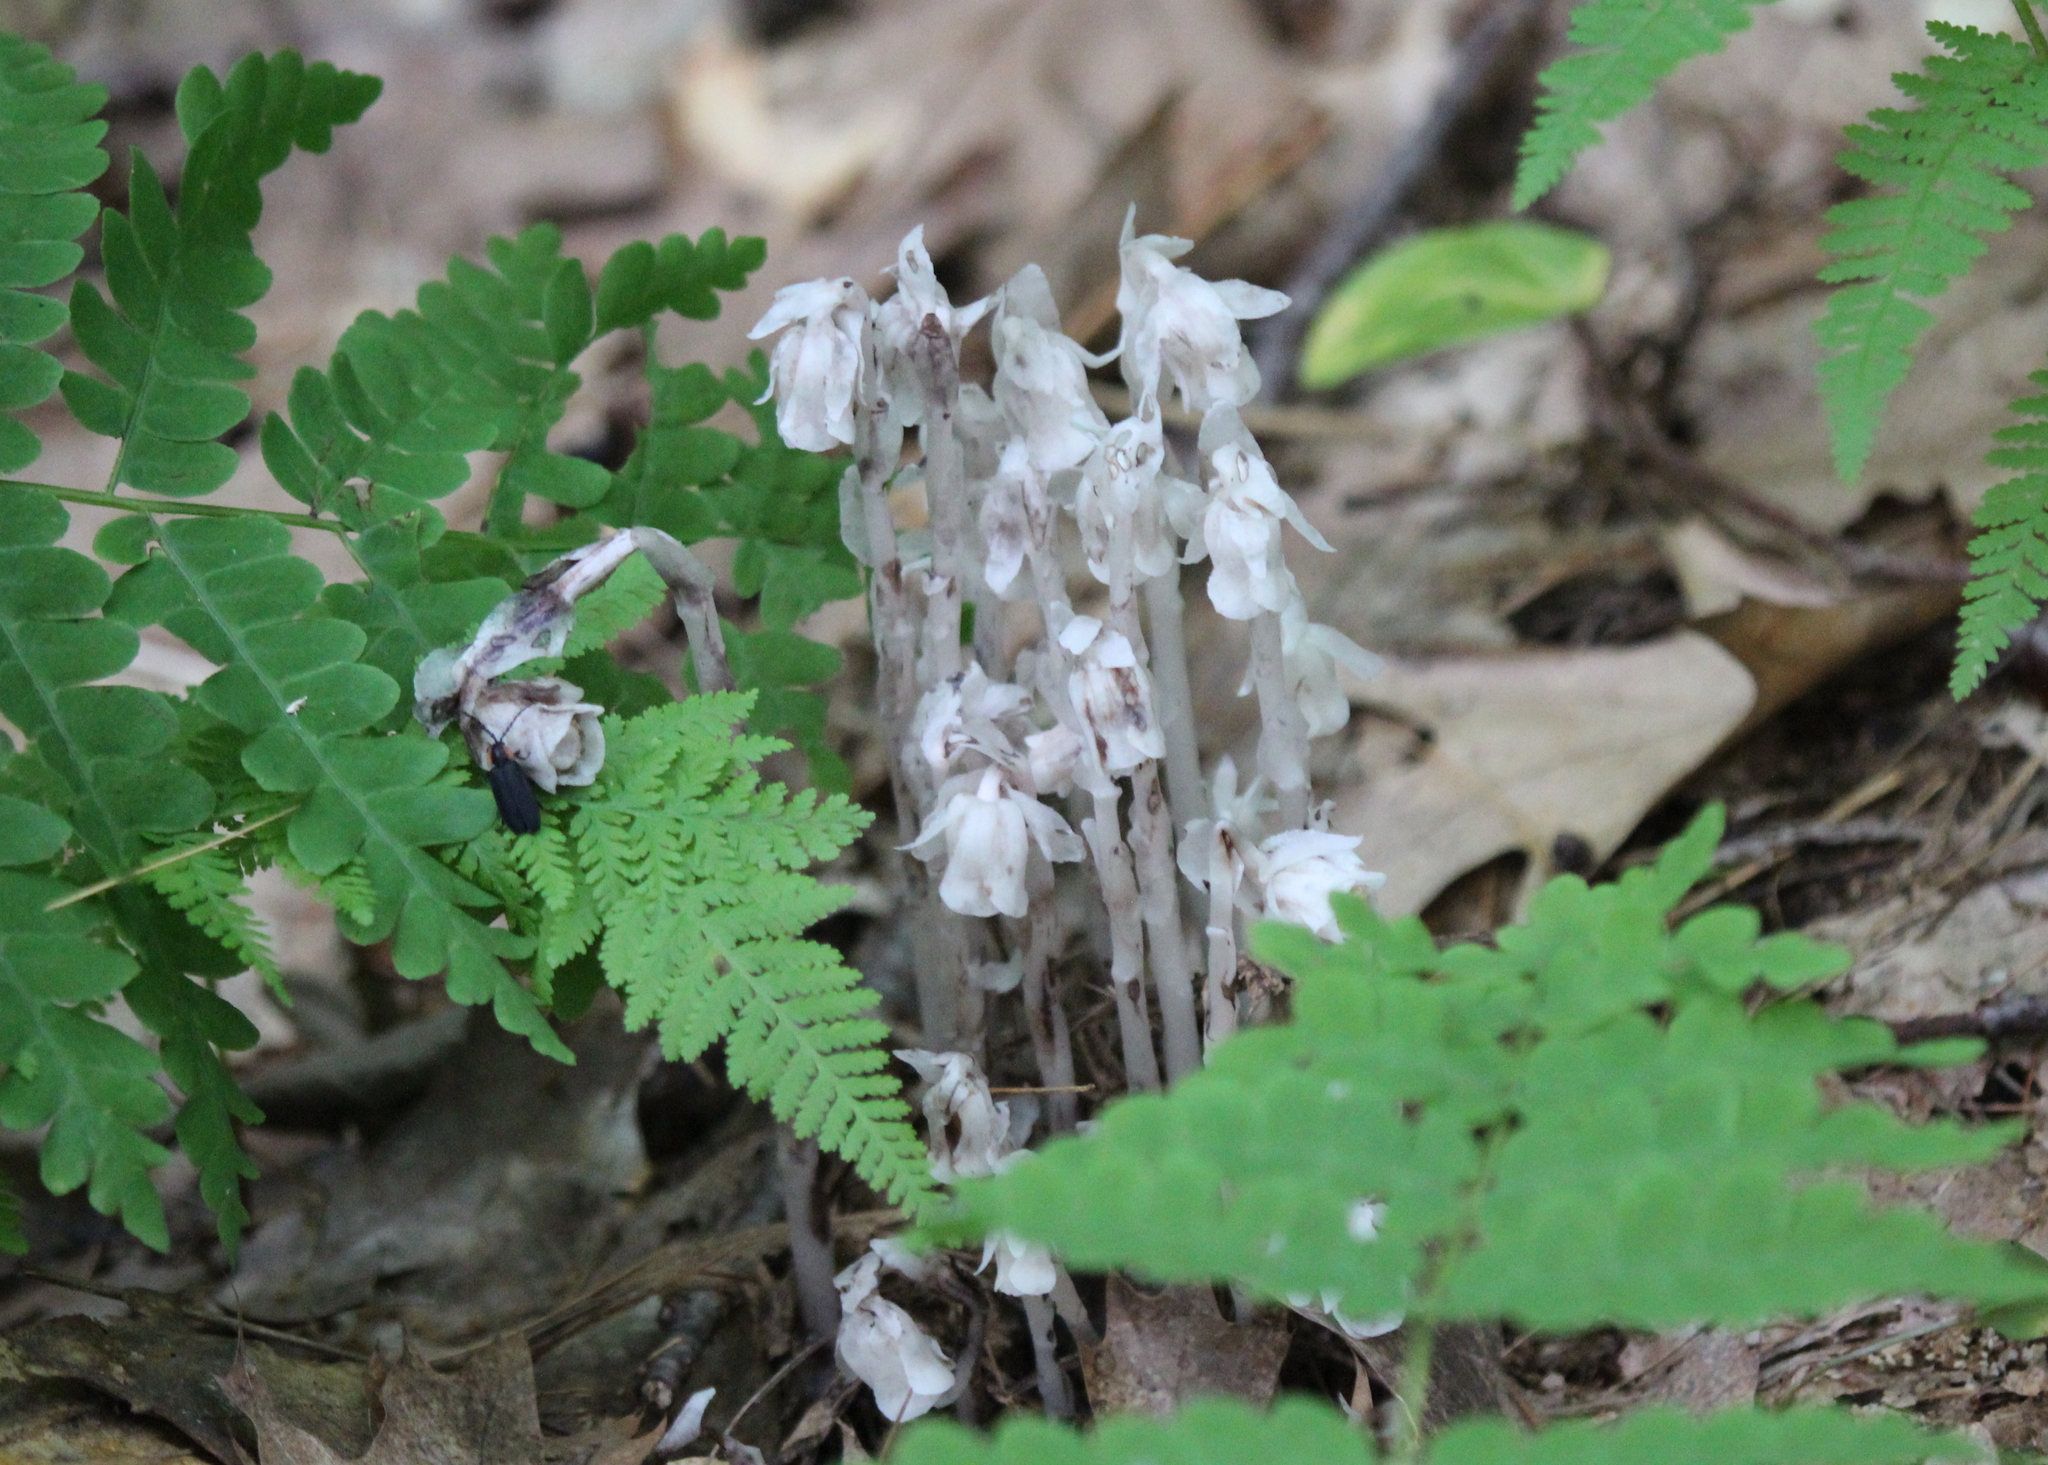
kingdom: Plantae
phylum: Tracheophyta
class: Magnoliopsida
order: Ericales
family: Ericaceae
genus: Monotropa
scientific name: Monotropa uniflora
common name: Convulsion root
